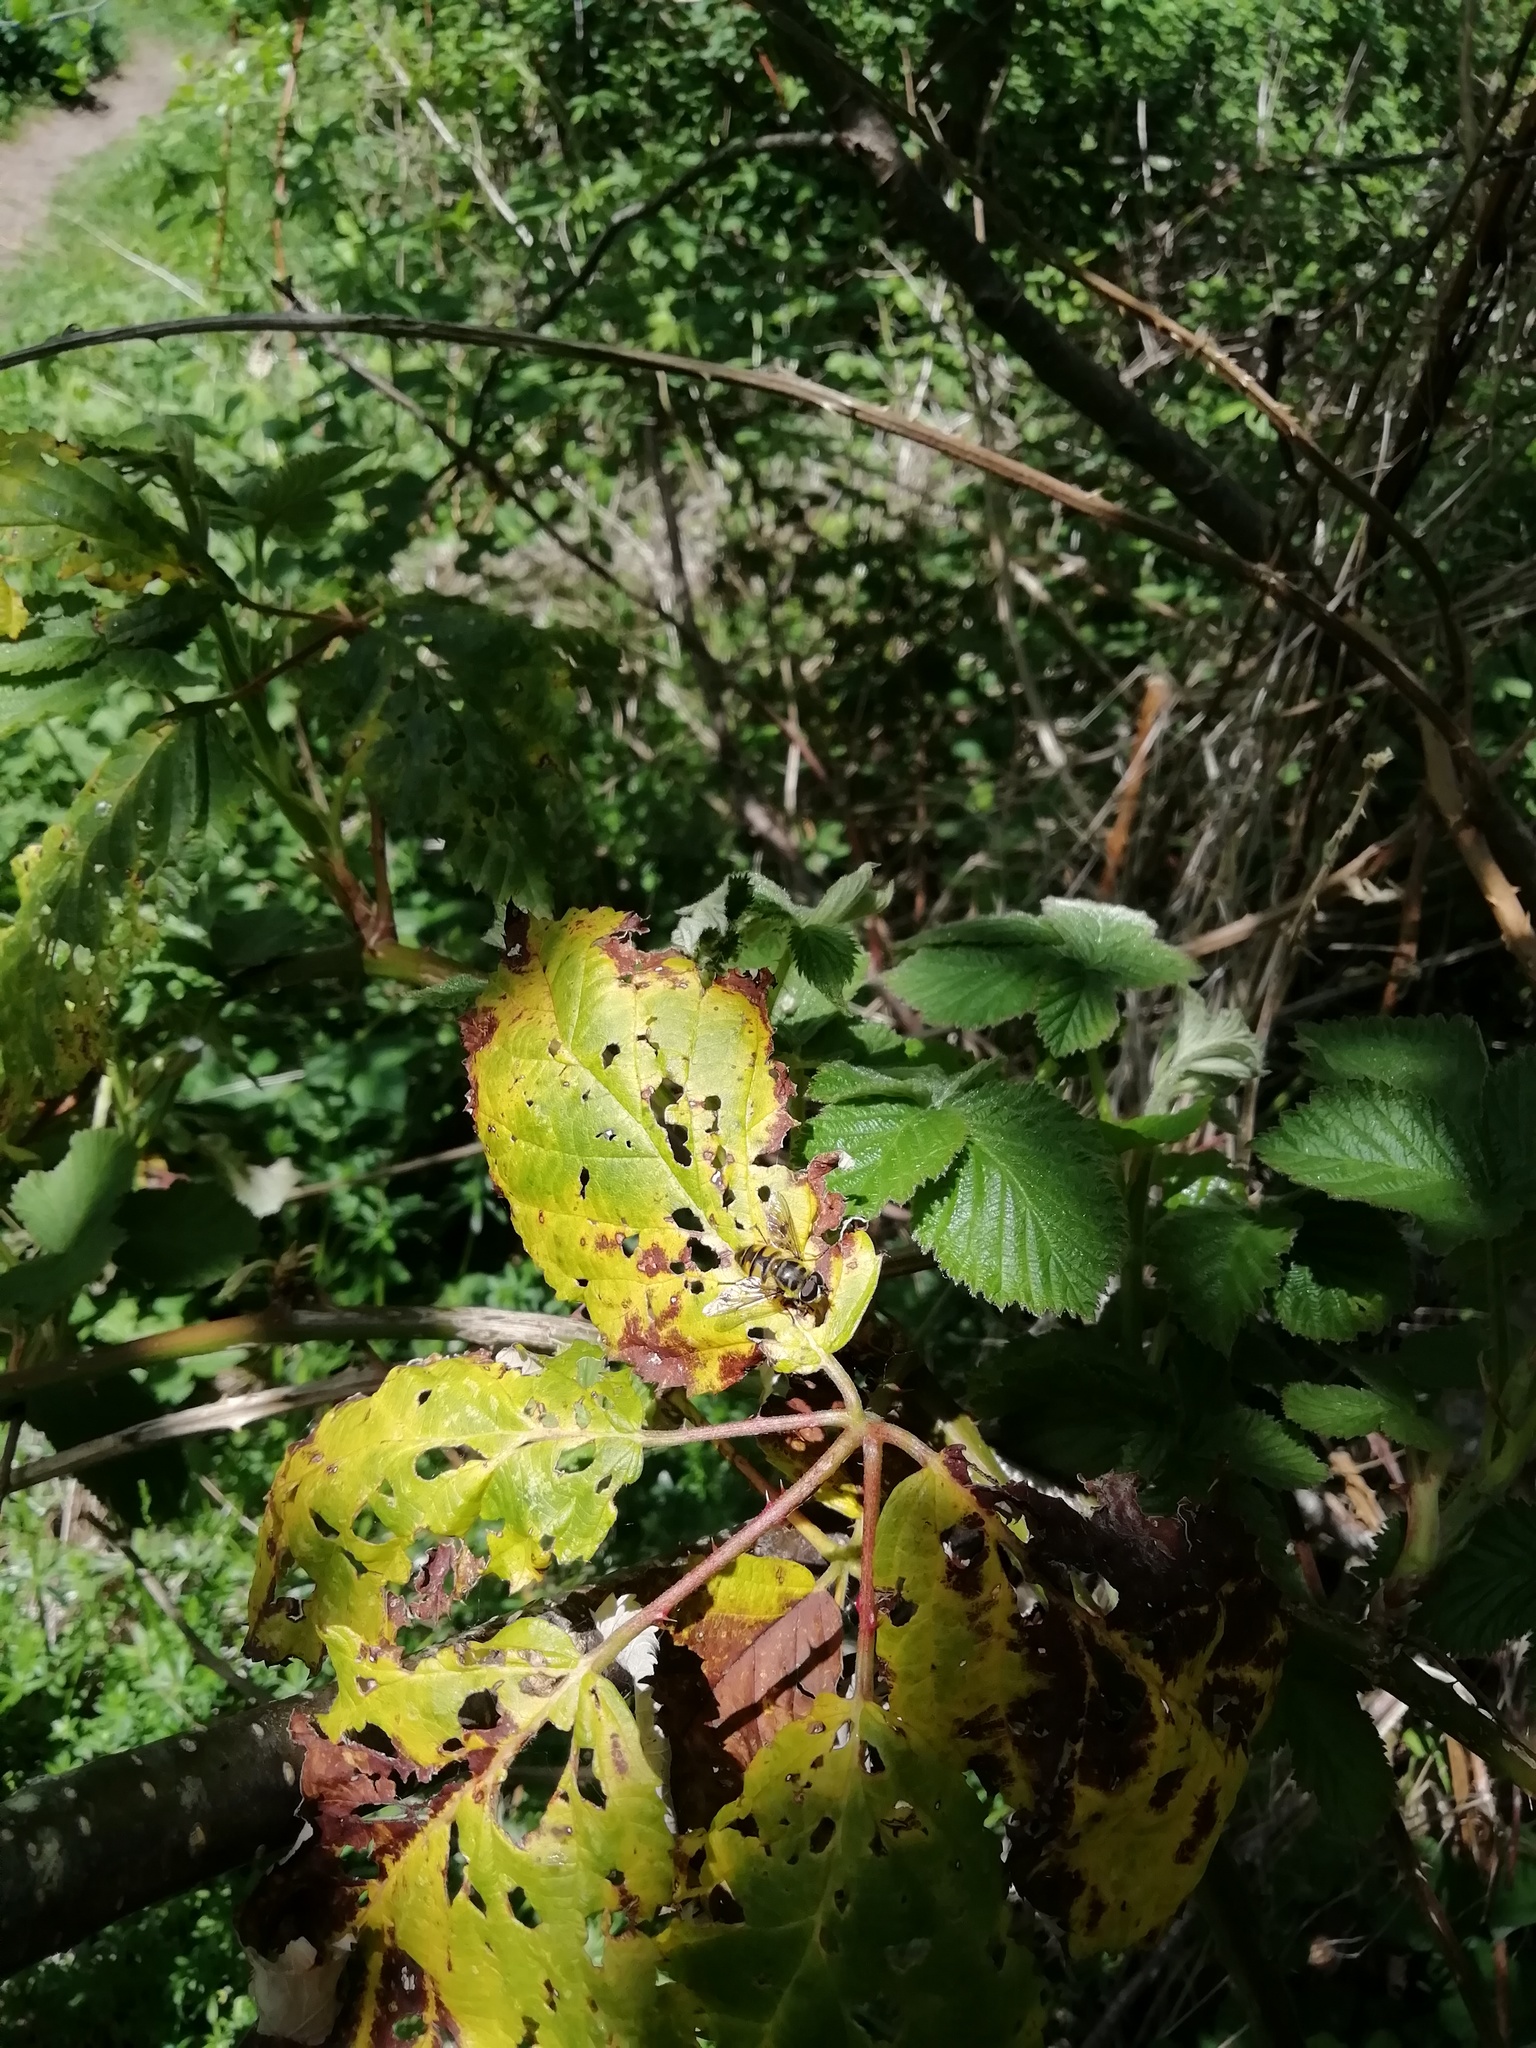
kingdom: Animalia
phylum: Arthropoda
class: Insecta
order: Diptera
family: Syrphidae
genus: Myathropa
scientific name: Myathropa florea
